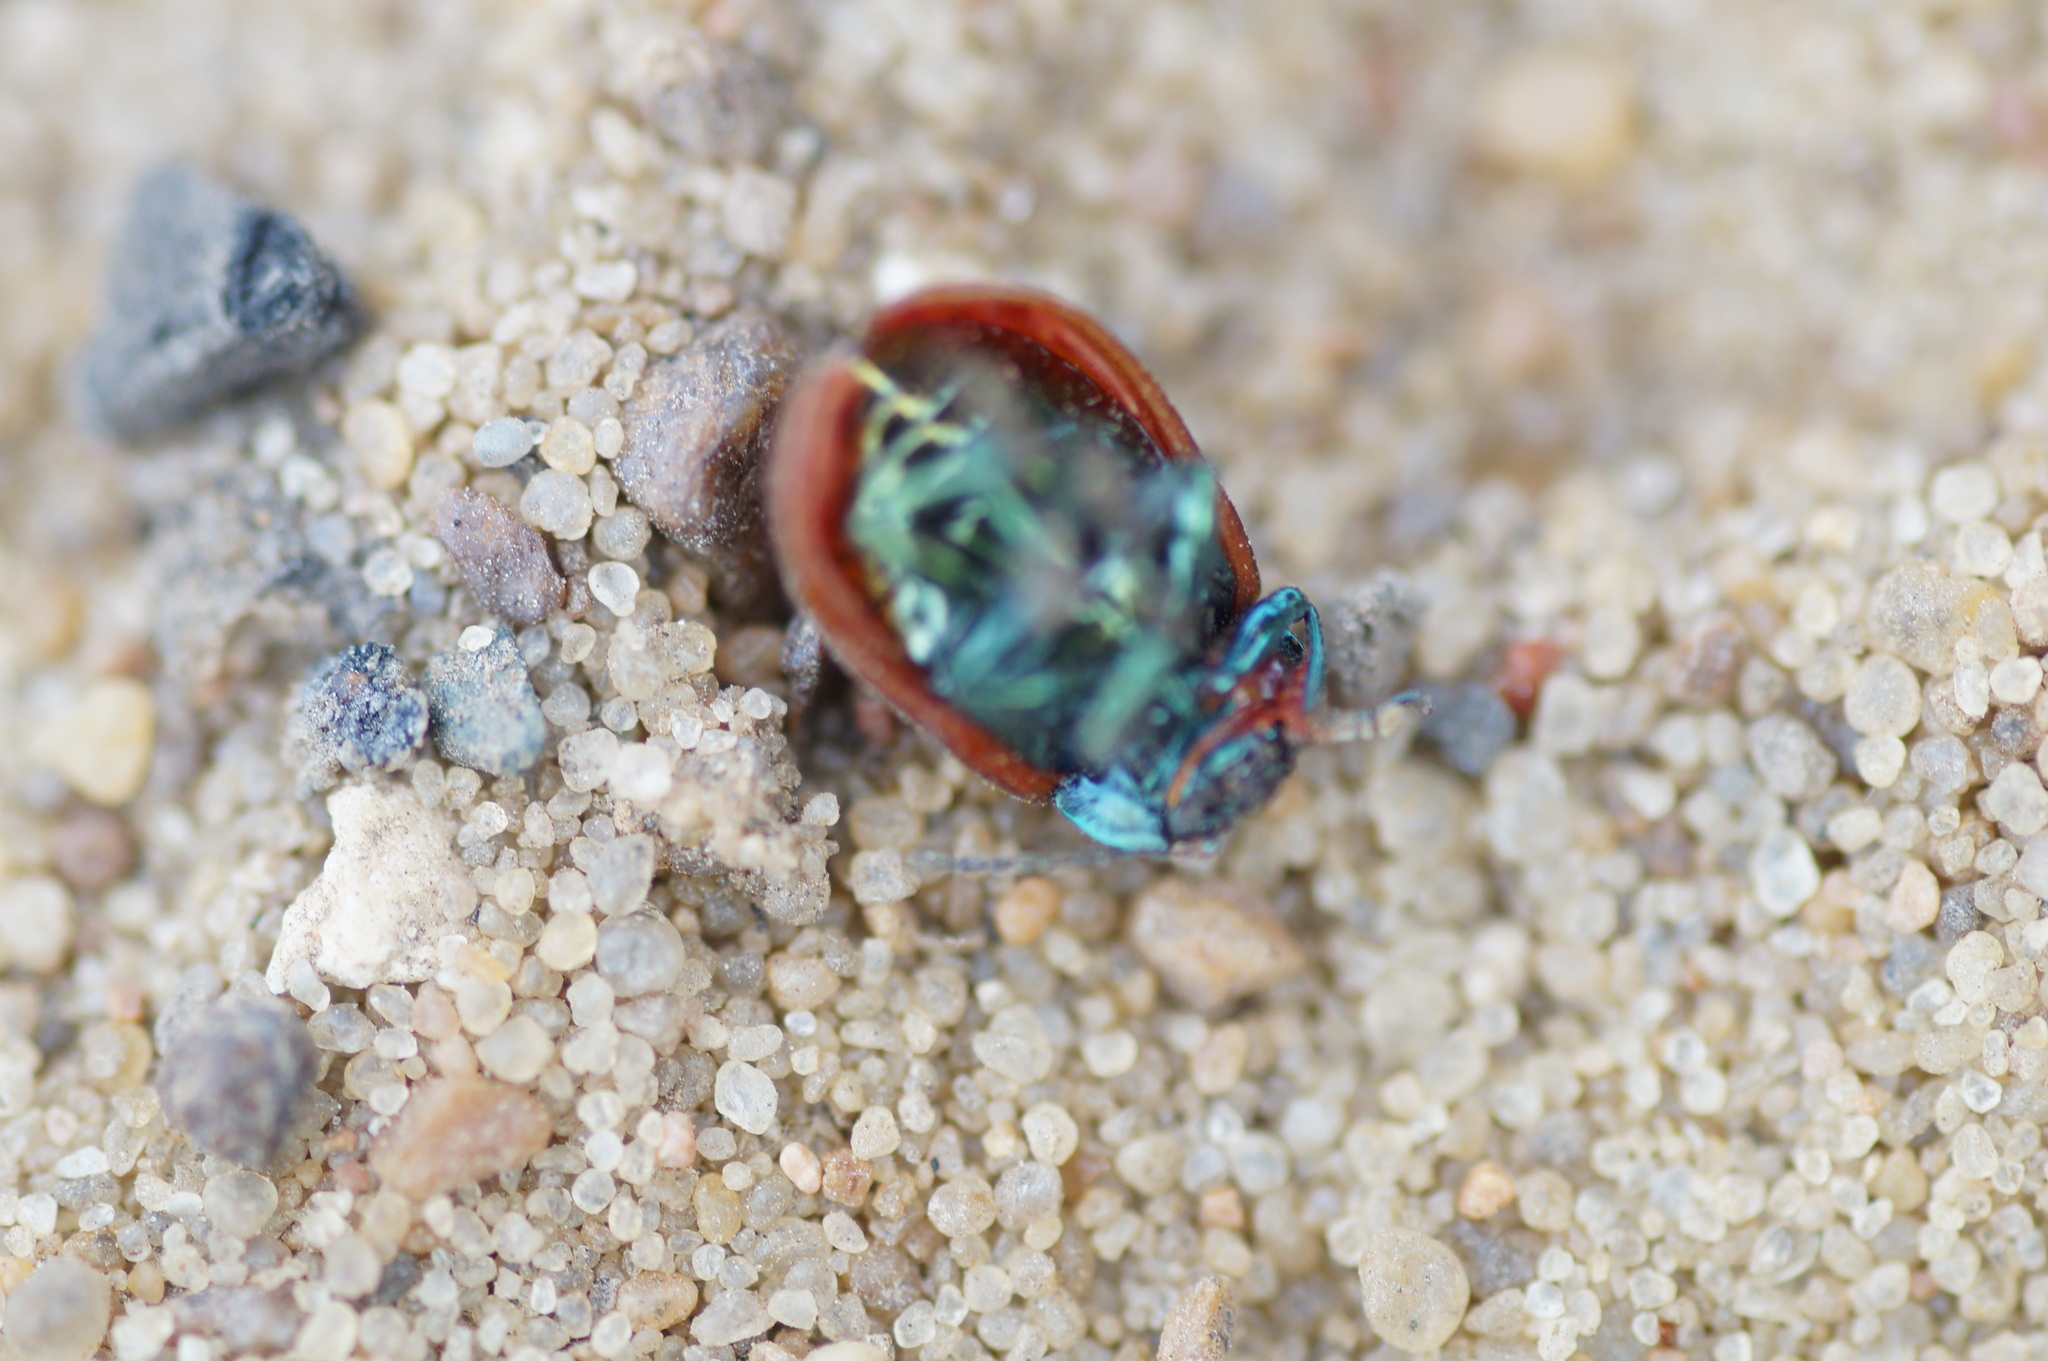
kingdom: Animalia
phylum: Arthropoda
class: Insecta
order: Coleoptera
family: Chrysomelidae
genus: Chrysomela
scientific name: Chrysomela polita
